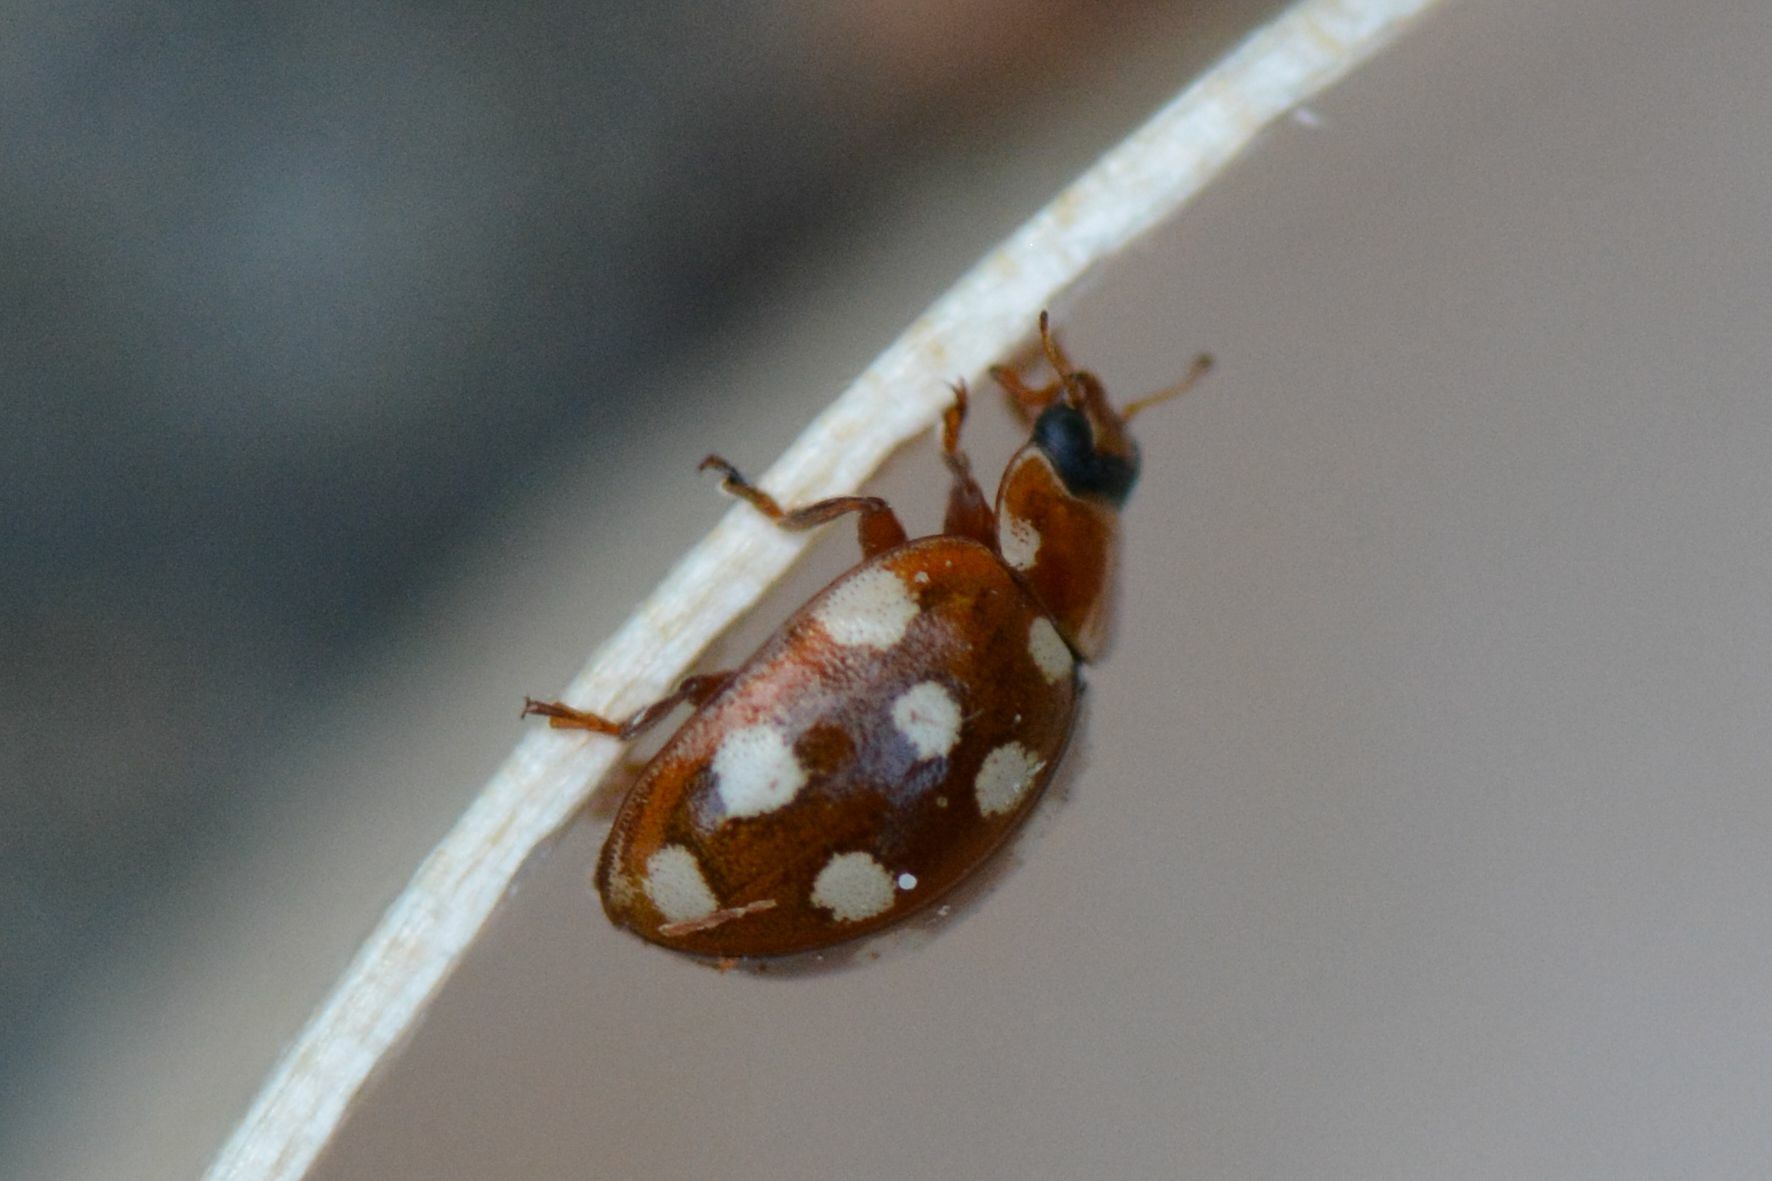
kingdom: Animalia
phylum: Arthropoda
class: Insecta
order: Coleoptera
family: Coccinellidae
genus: Calvia
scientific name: Calvia quatuordecimguttata
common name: Cream-spot ladybird
